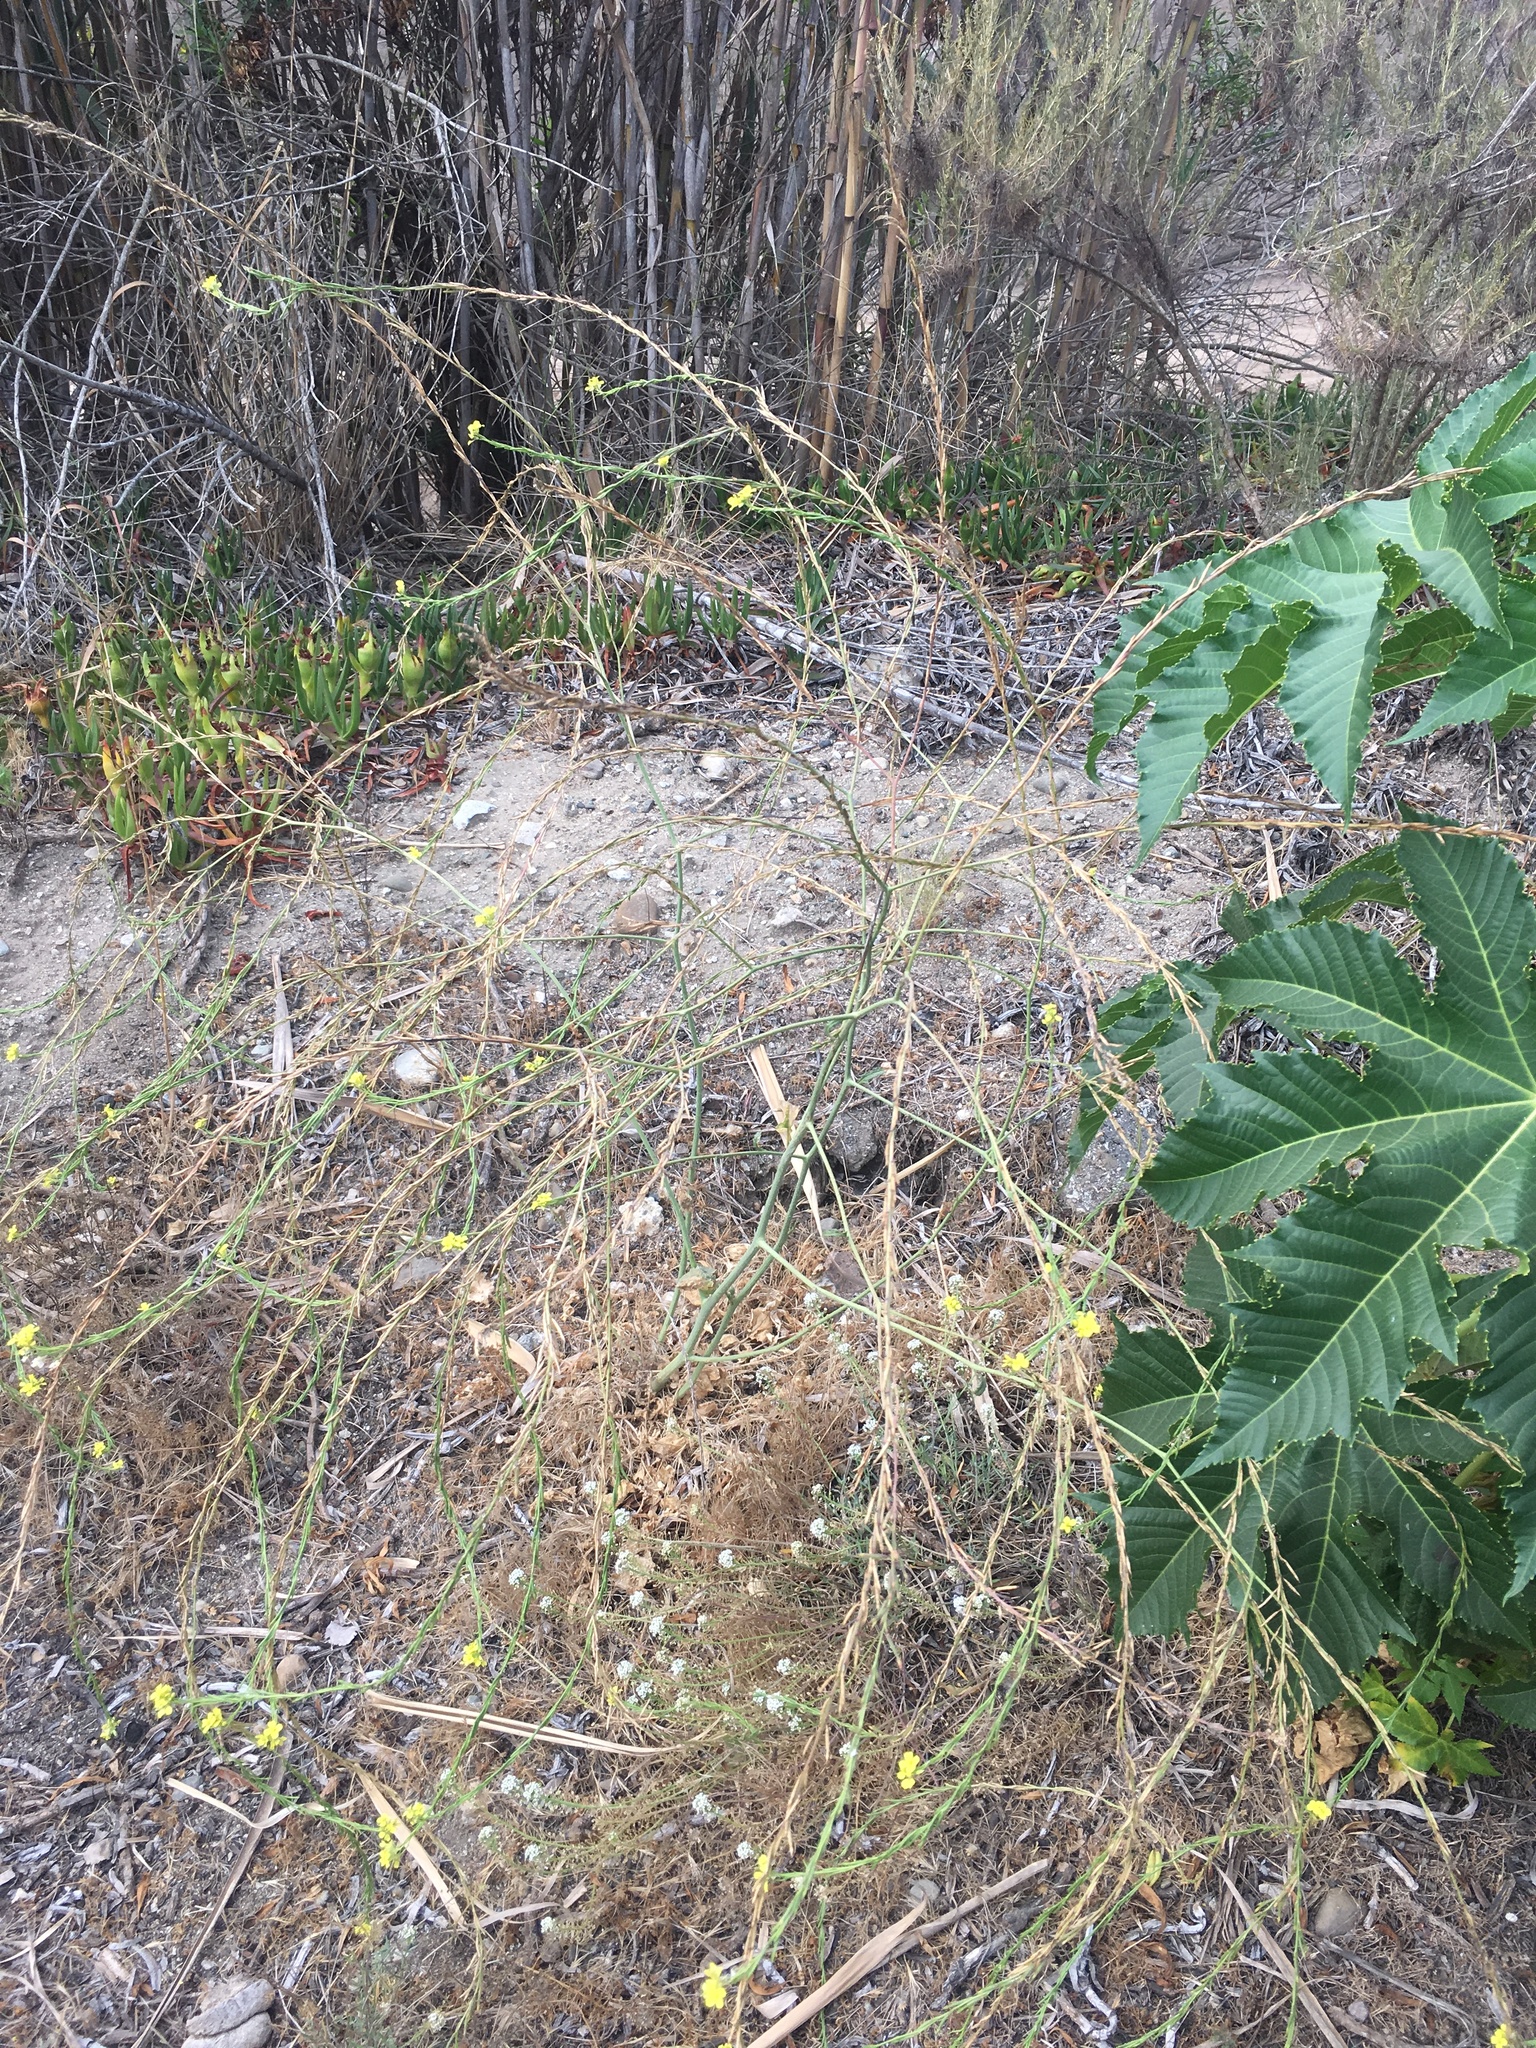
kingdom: Plantae
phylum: Tracheophyta
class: Magnoliopsida
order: Brassicales
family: Brassicaceae
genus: Hirschfeldia
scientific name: Hirschfeldia incana
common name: Hoary mustard
